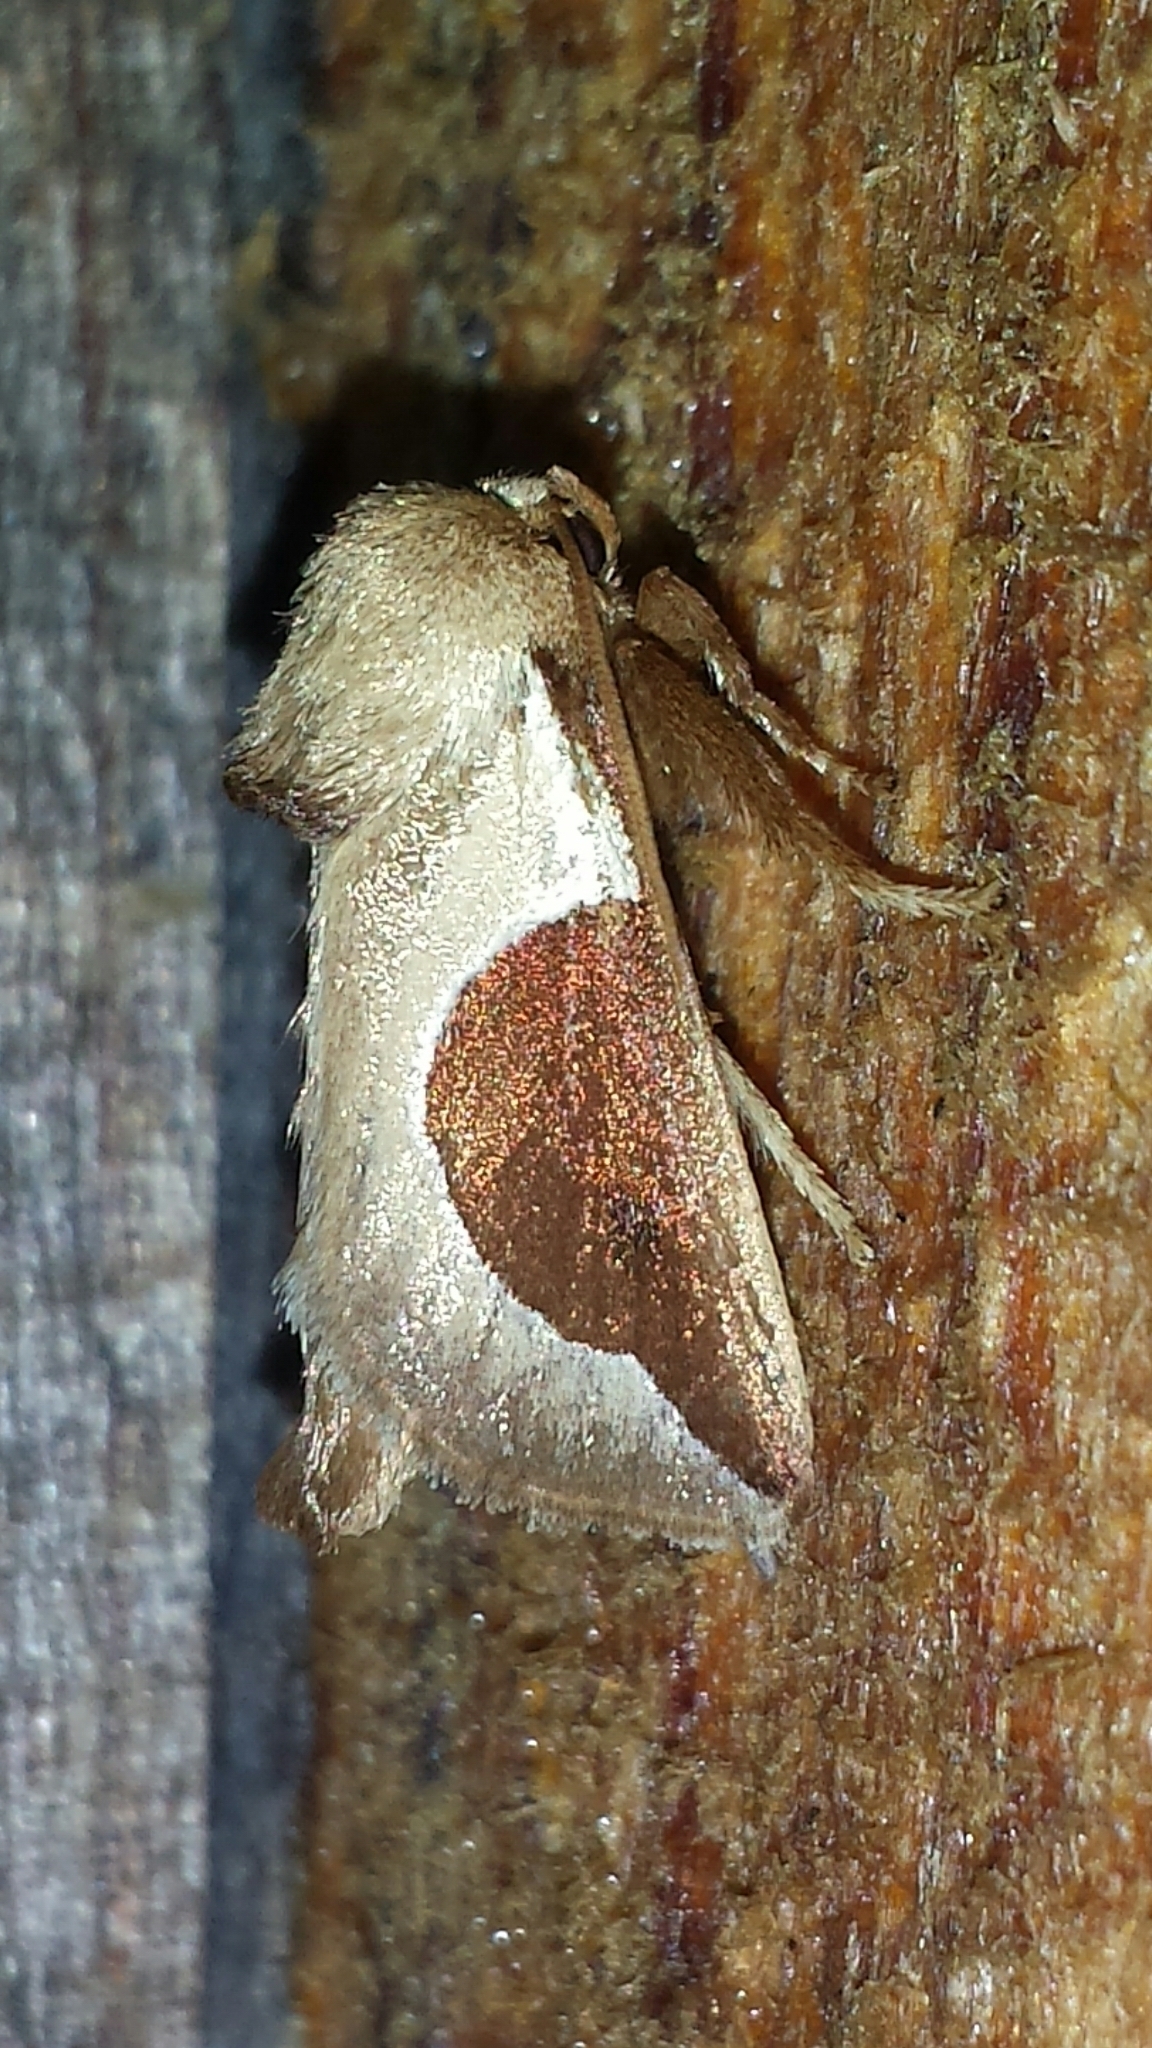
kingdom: Animalia
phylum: Arthropoda
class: Insecta
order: Lepidoptera
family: Limacodidae
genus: Prolimacodes
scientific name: Prolimacodes badia
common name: Skiff moth
